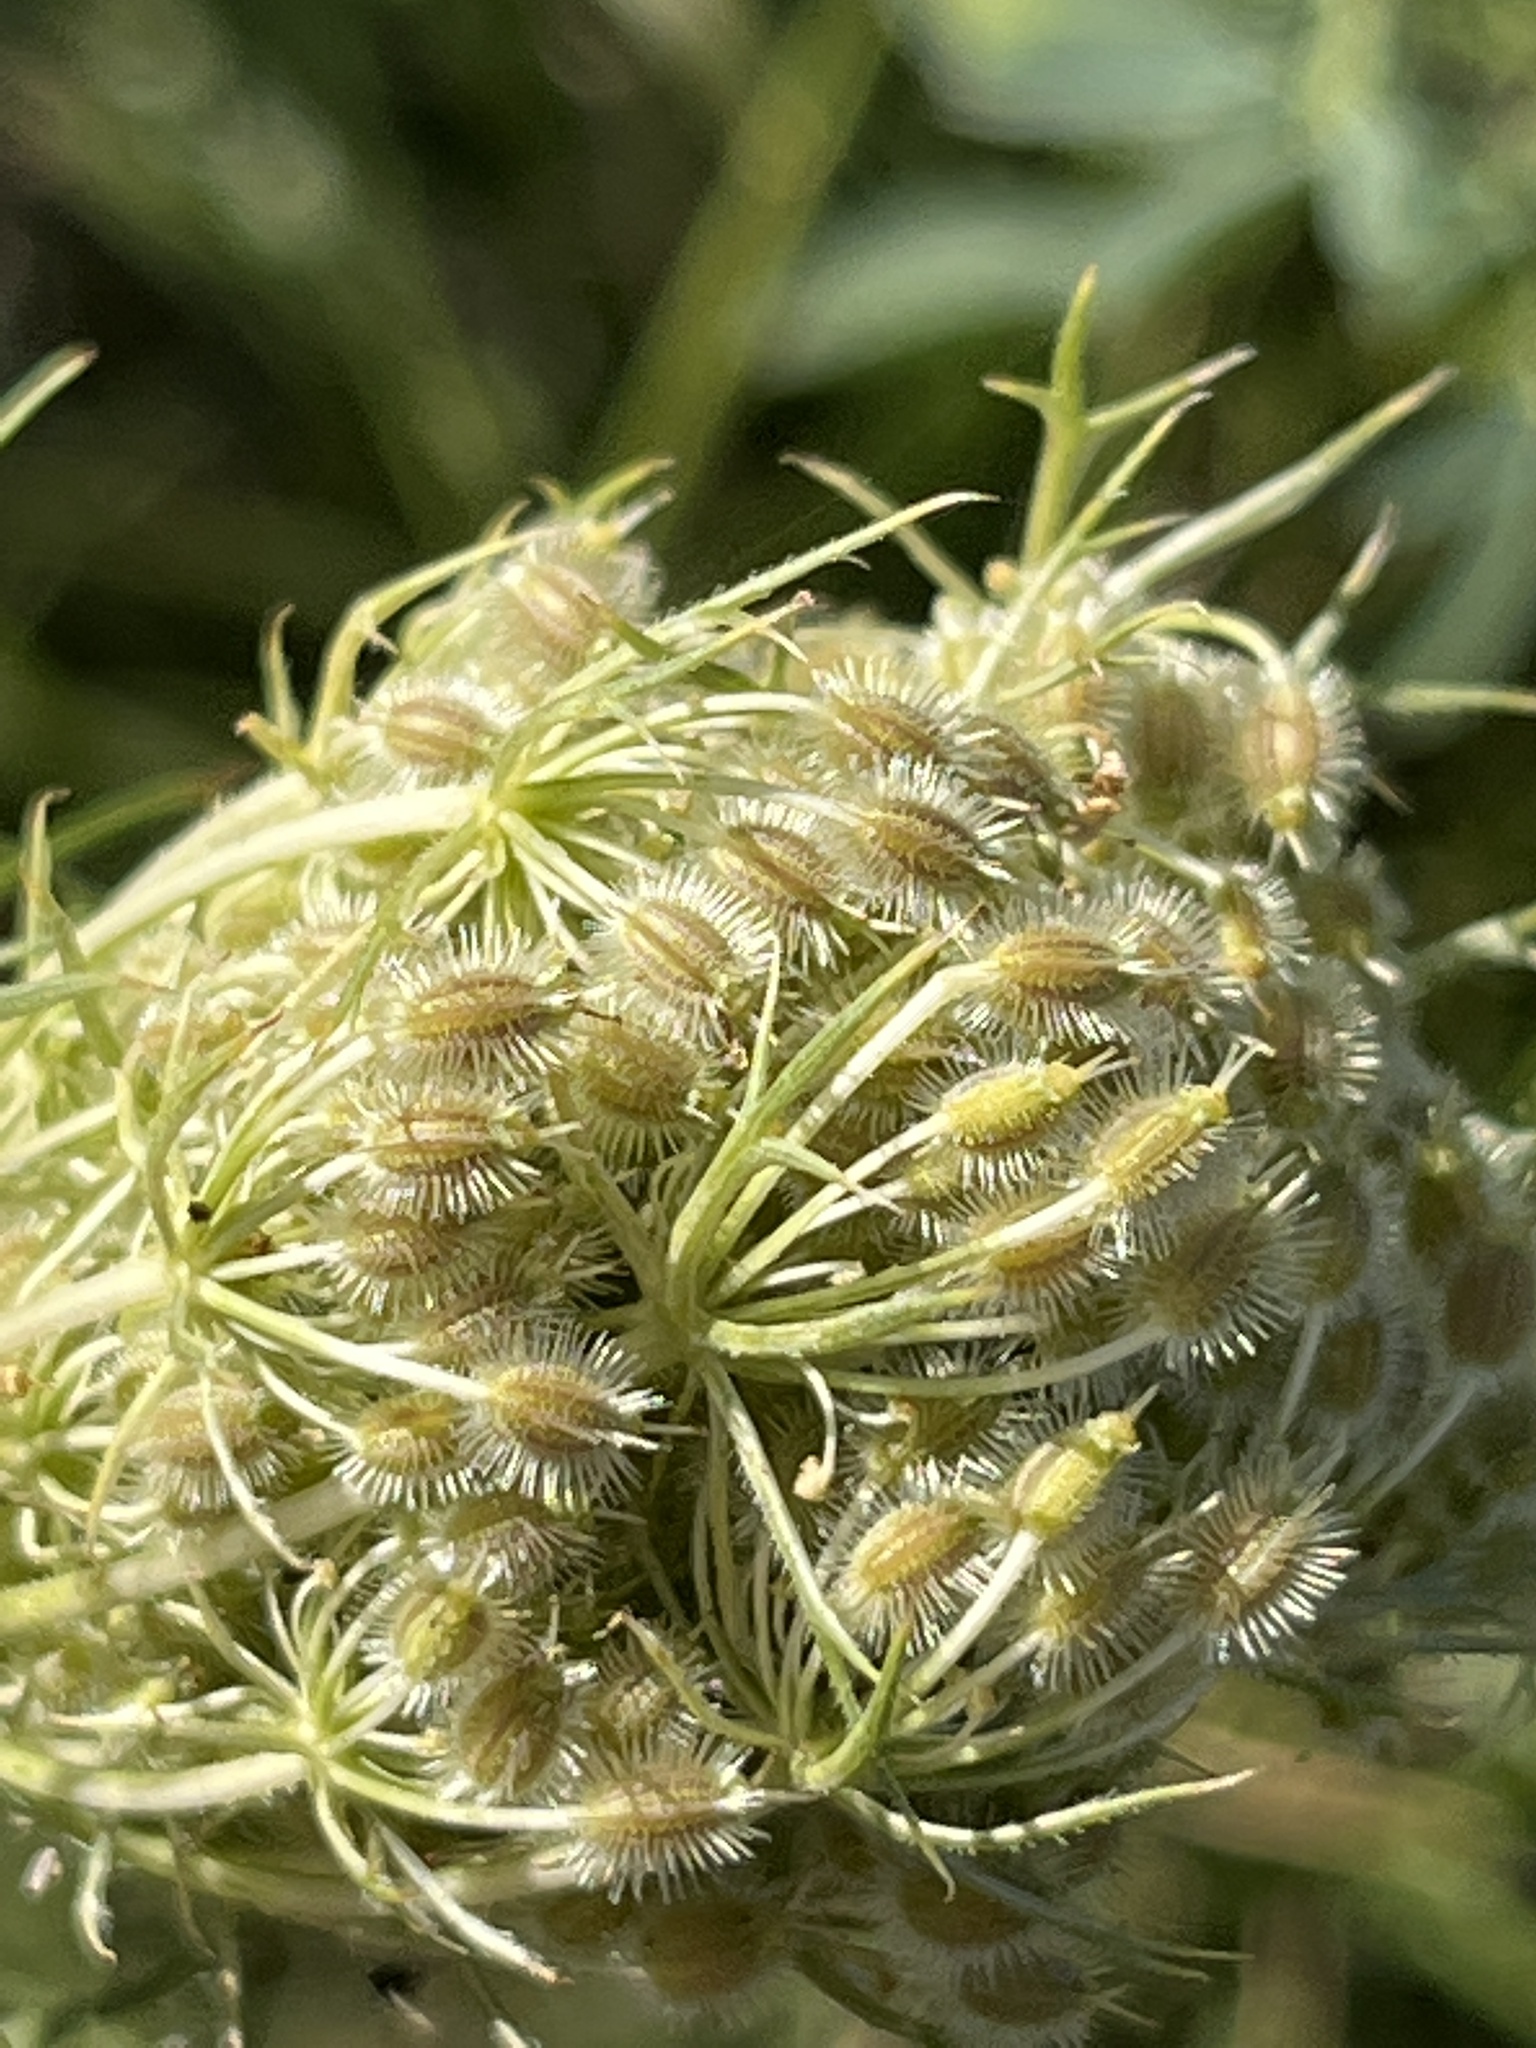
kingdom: Plantae
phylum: Tracheophyta
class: Magnoliopsida
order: Apiales
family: Apiaceae
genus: Daucus
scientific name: Daucus carota
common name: Wild carrot
